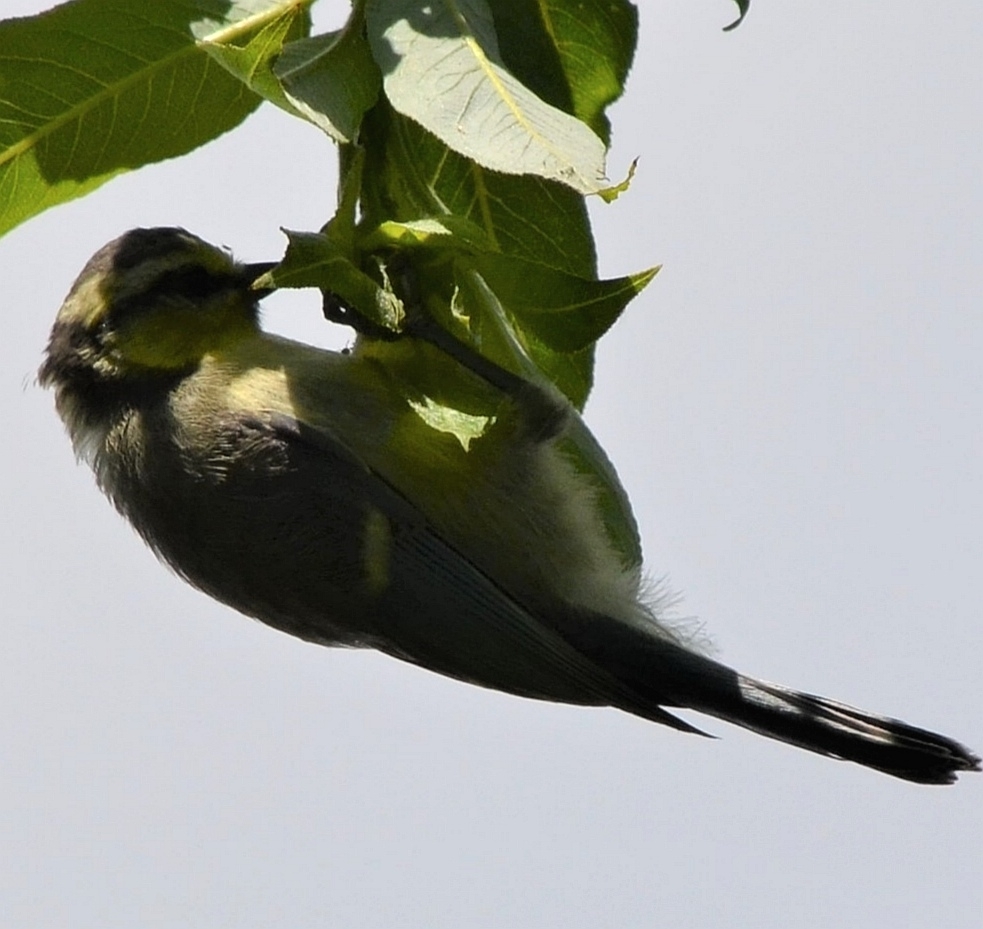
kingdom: Animalia
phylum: Chordata
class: Aves
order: Passeriformes
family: Paridae
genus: Cyanistes
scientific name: Cyanistes caeruleus
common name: Eurasian blue tit
